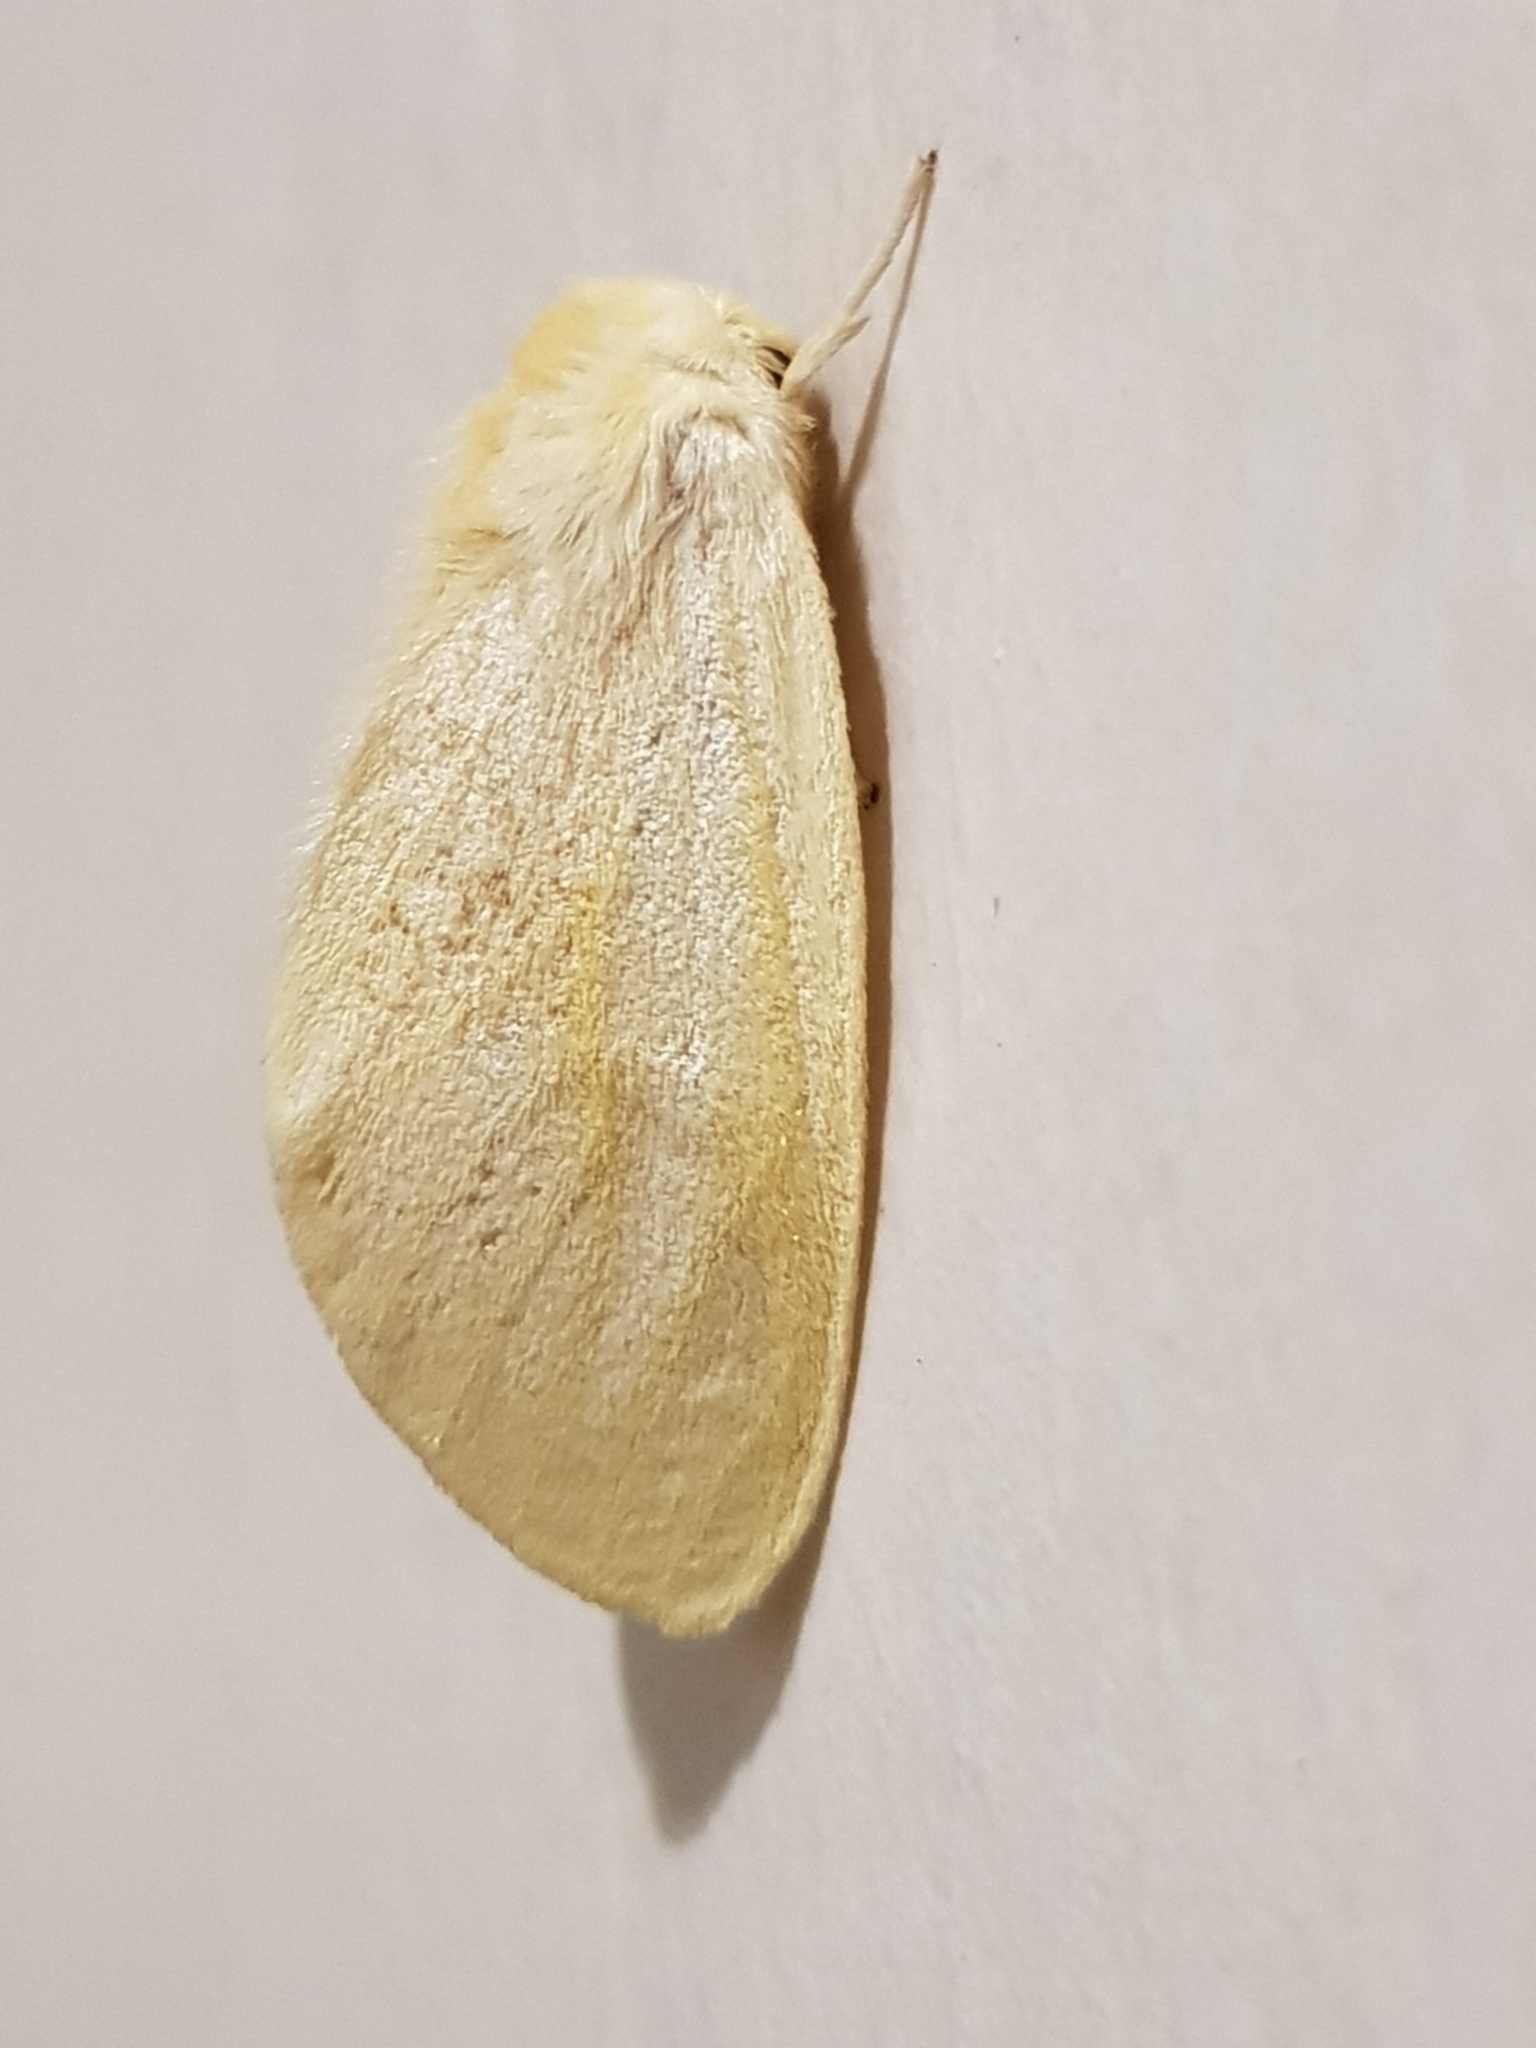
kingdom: Animalia
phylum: Arthropoda
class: Insecta
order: Lepidoptera
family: Erebidae
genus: Perina
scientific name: Perina sunda
